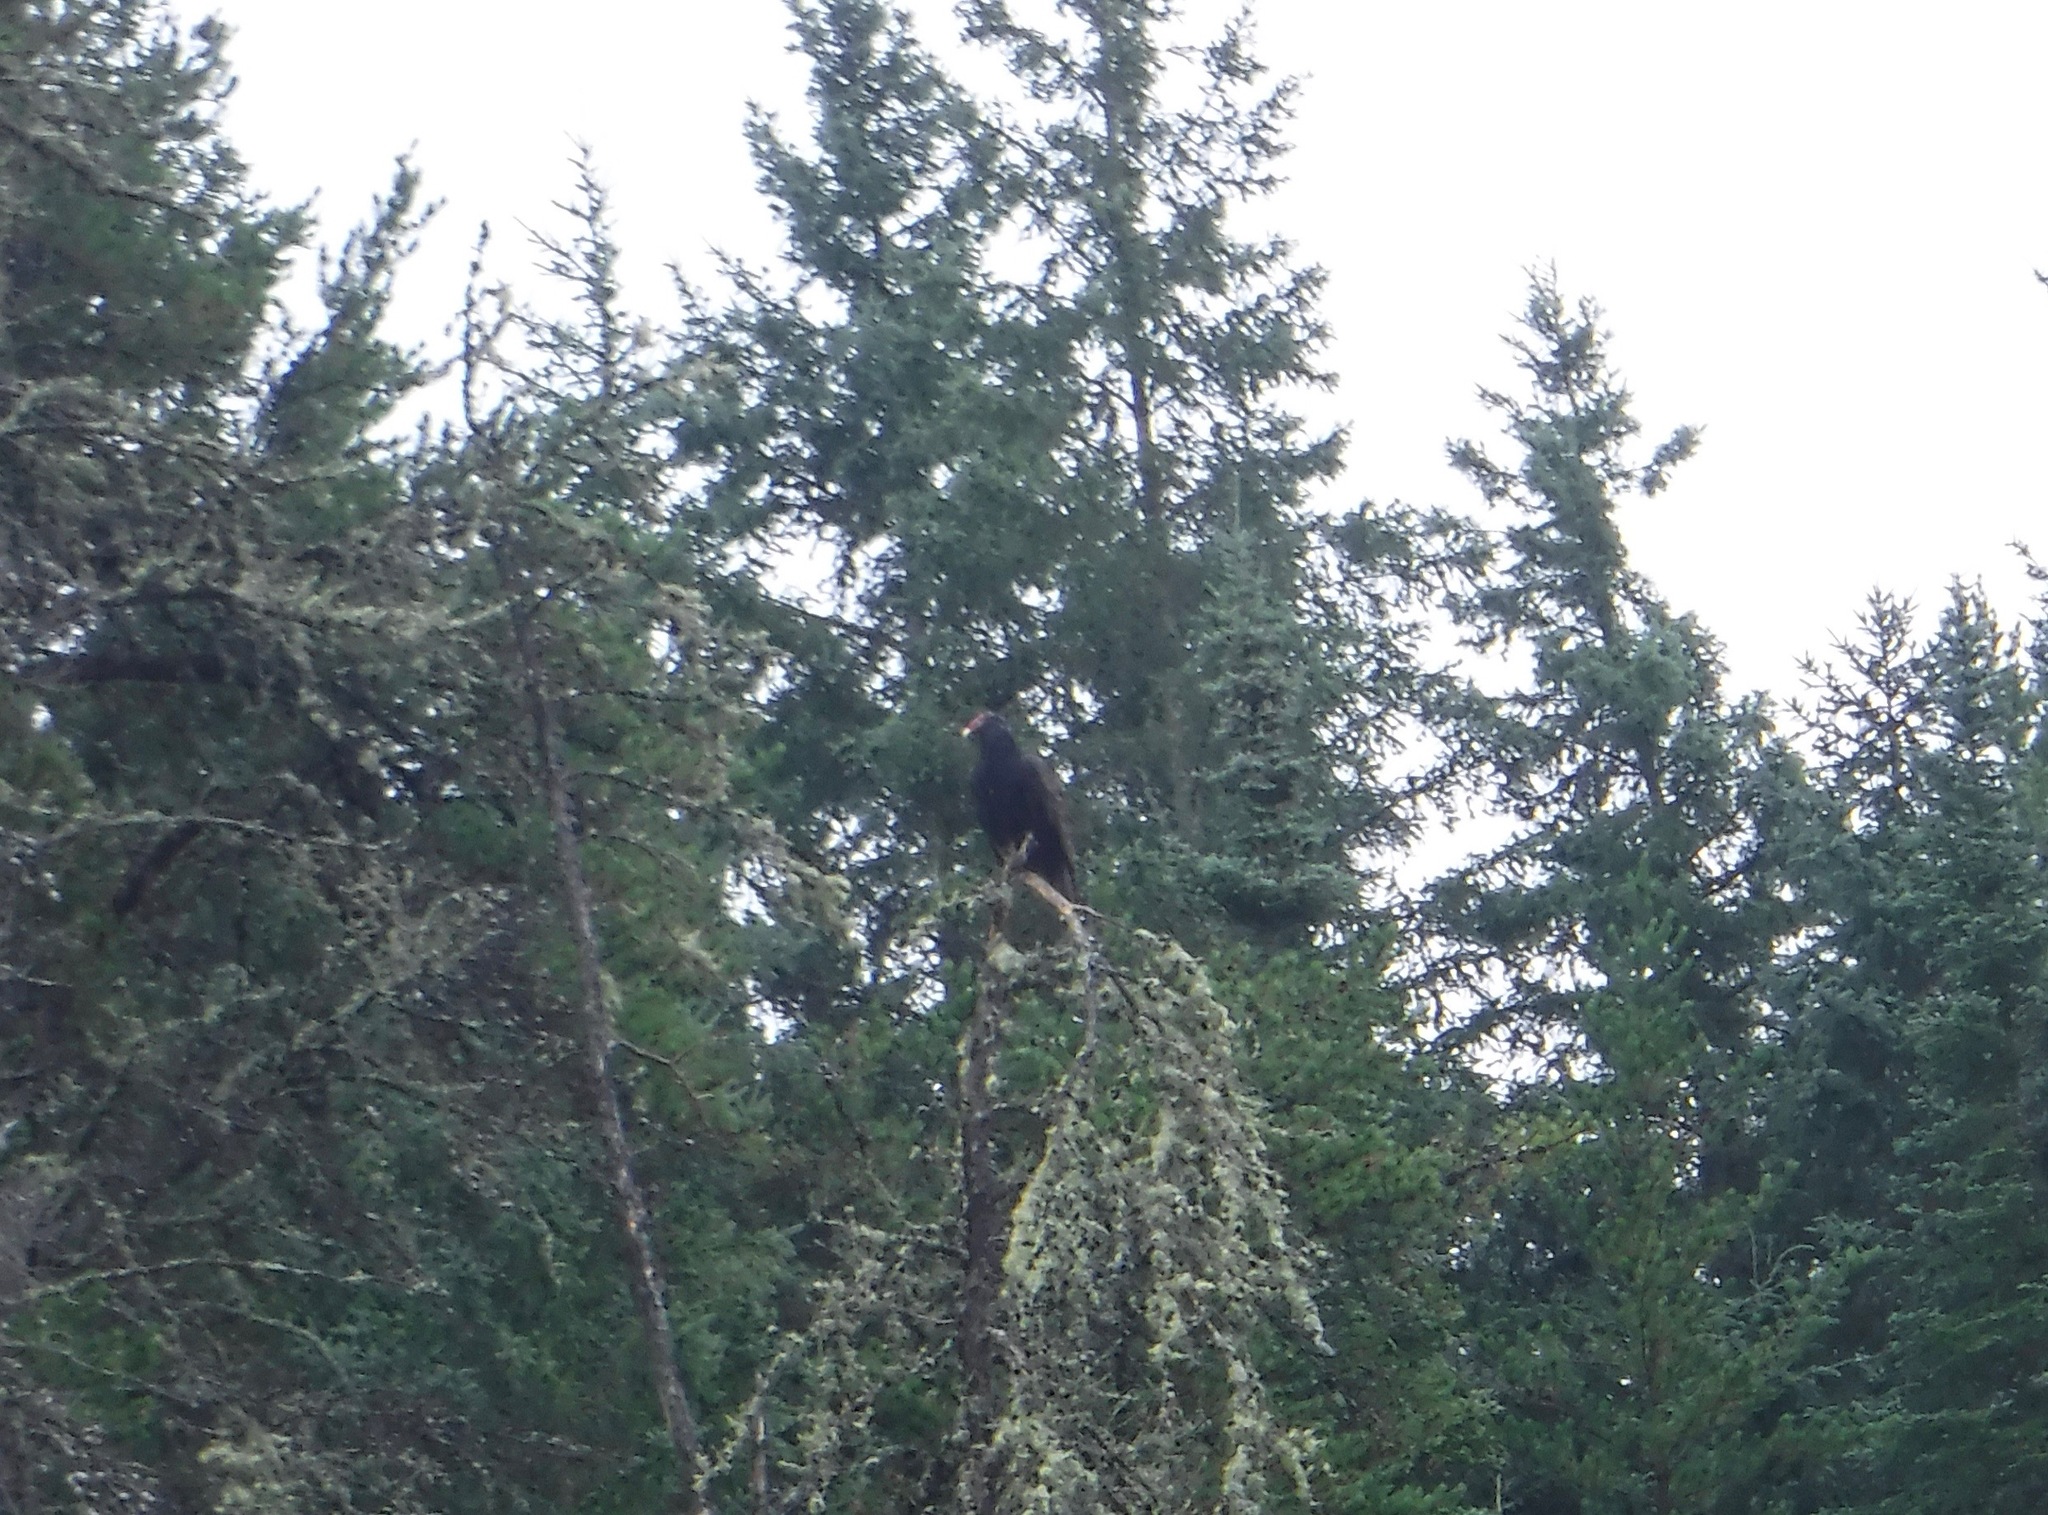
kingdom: Animalia
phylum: Chordata
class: Aves
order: Accipitriformes
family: Cathartidae
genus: Cathartes
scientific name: Cathartes aura
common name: Turkey vulture
